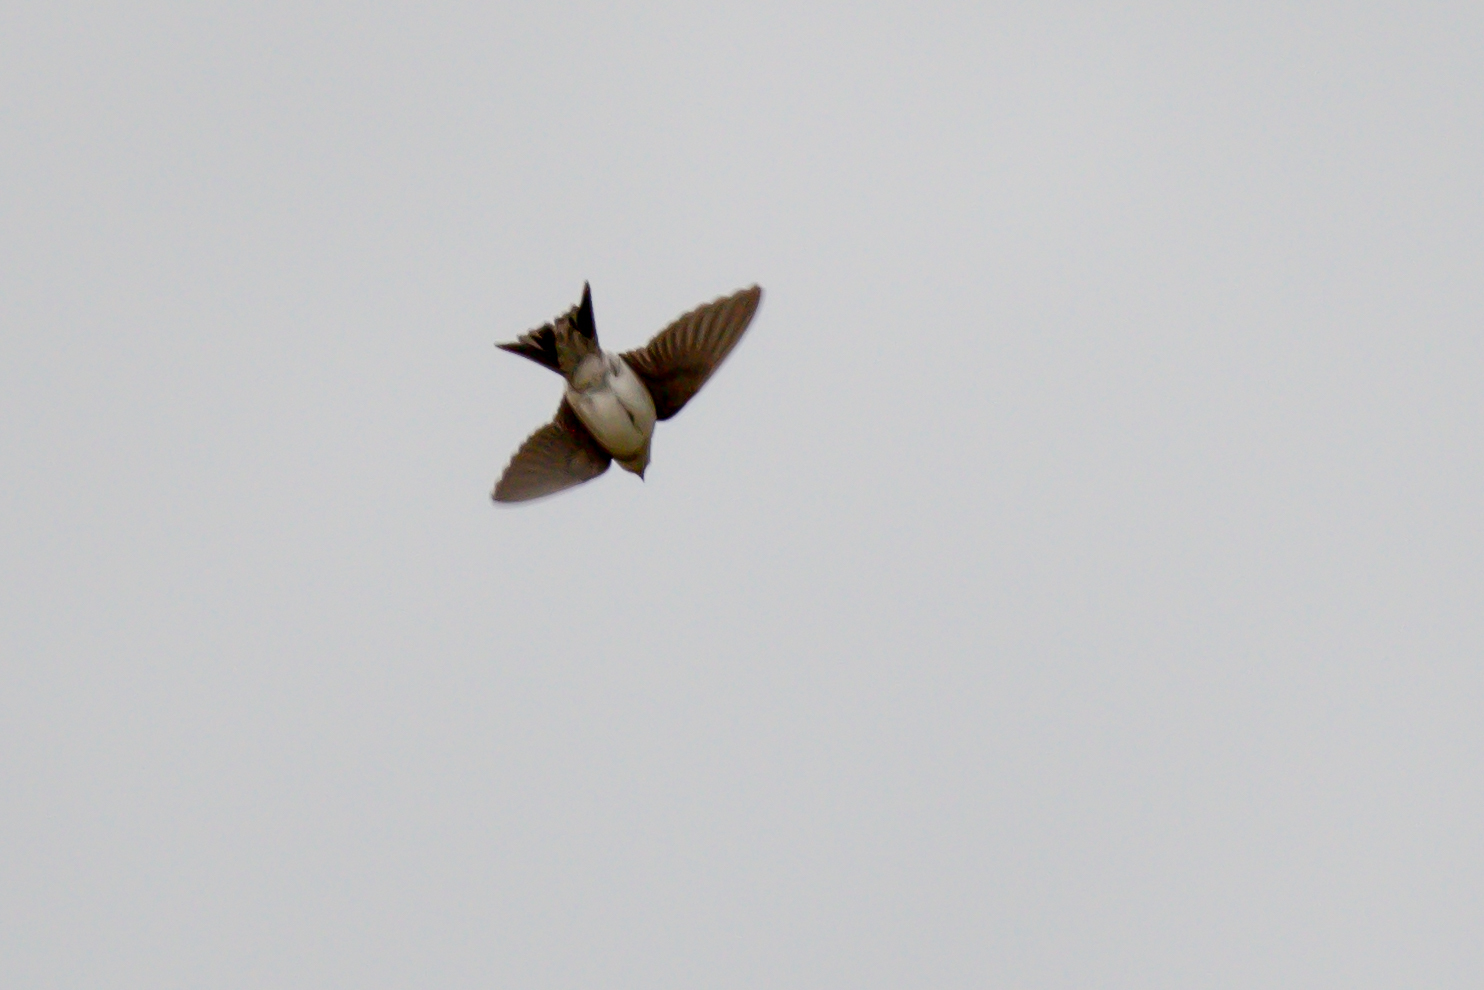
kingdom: Animalia
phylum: Chordata
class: Aves
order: Passeriformes
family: Hirundinidae
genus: Delichon
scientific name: Delichon urbicum
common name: Common house martin
